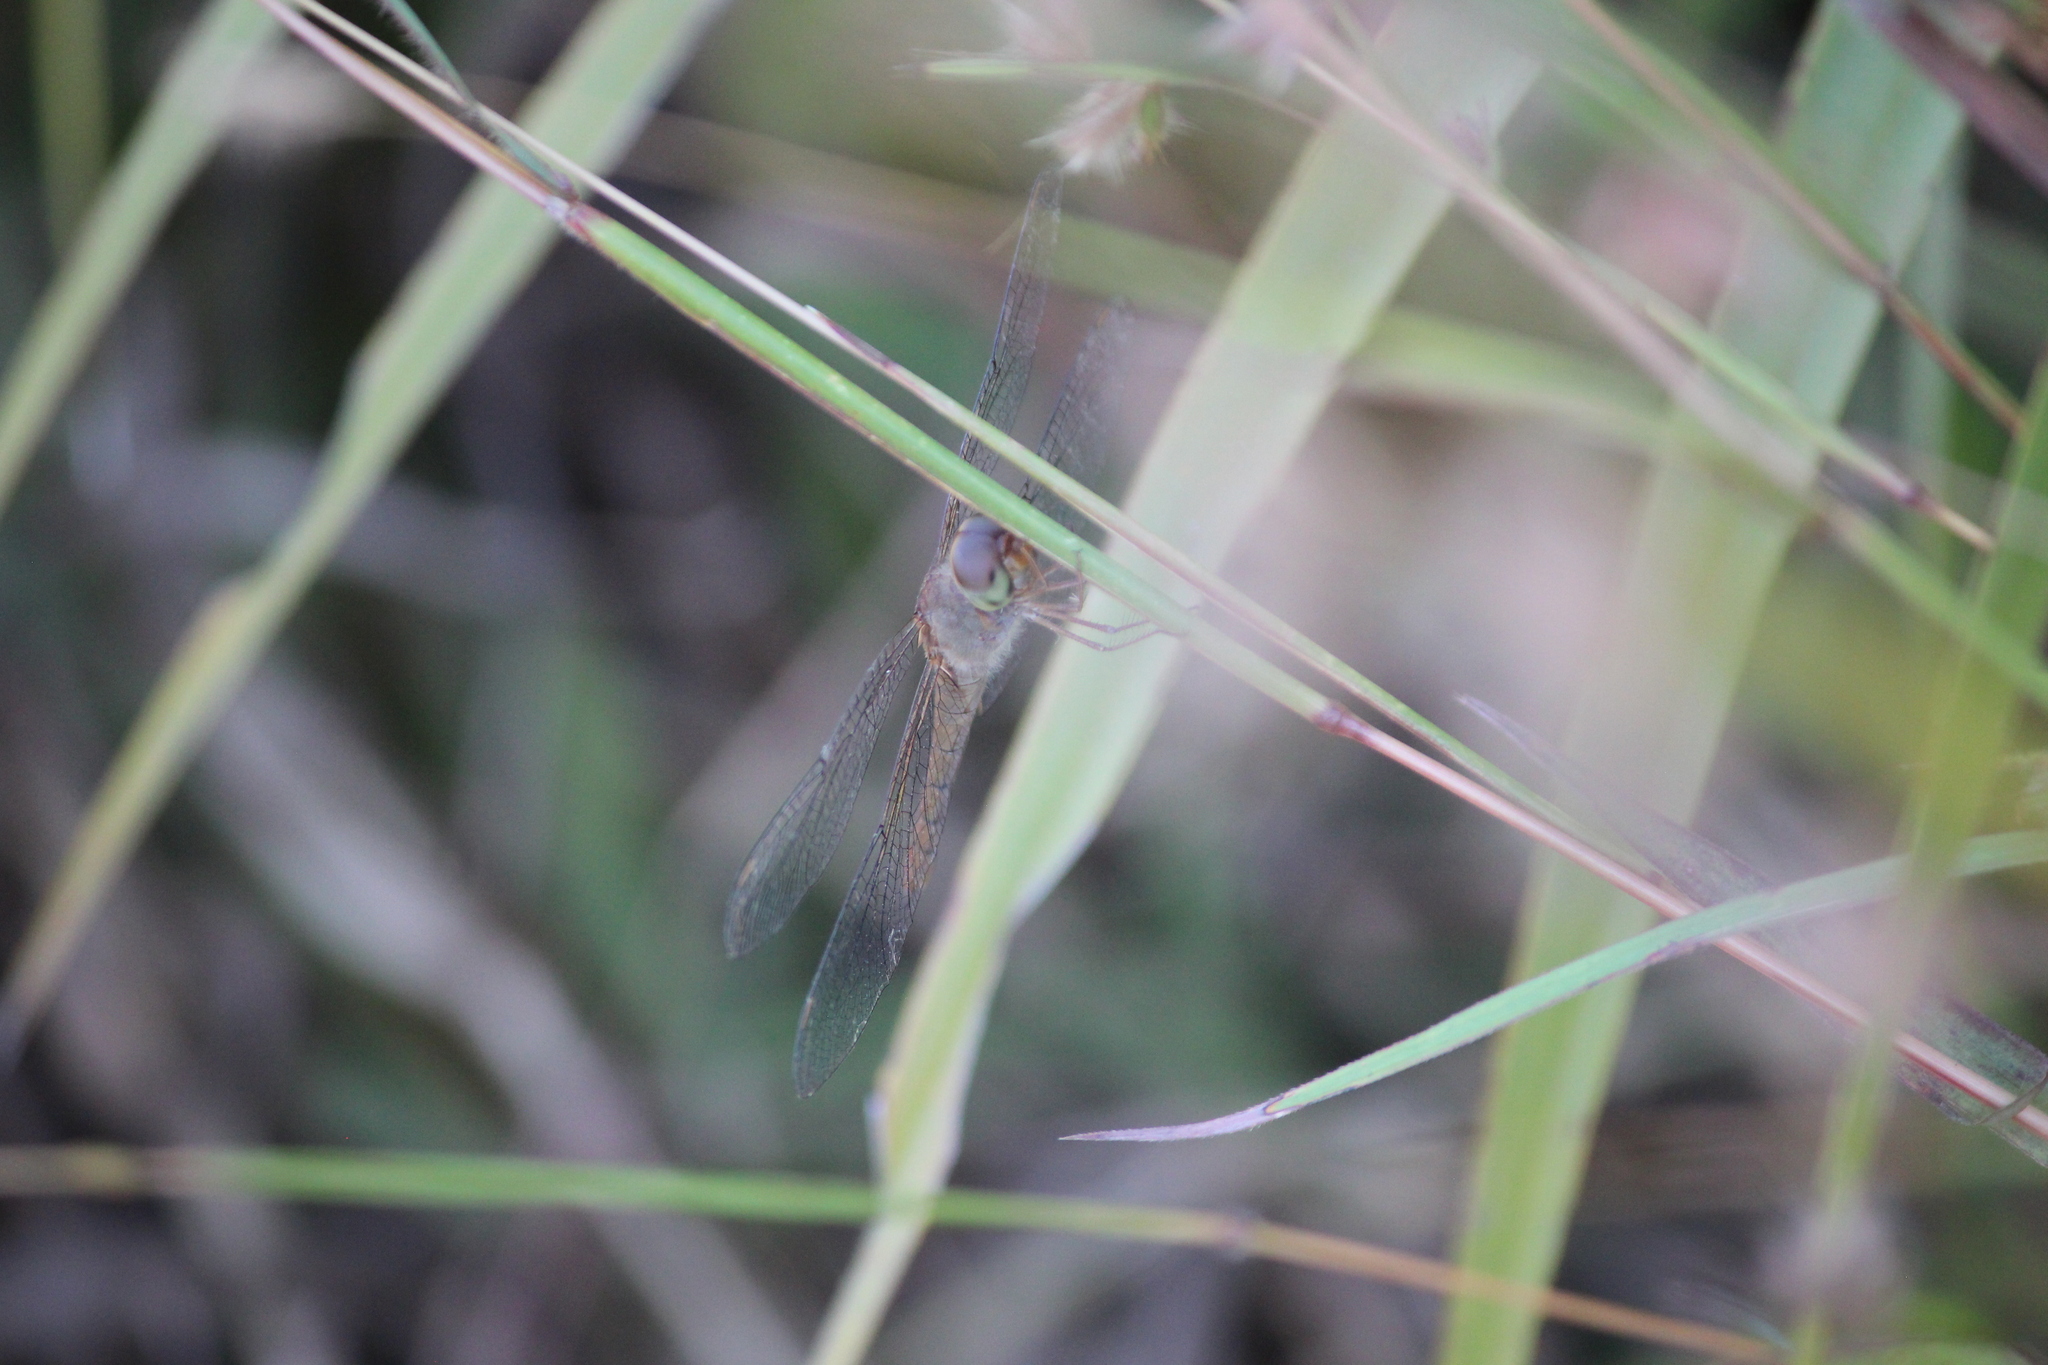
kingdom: Animalia
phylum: Arthropoda
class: Insecta
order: Odonata
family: Libellulidae
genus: Tholymis
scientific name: Tholymis tillarga
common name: Coral-tailed cloud wing
